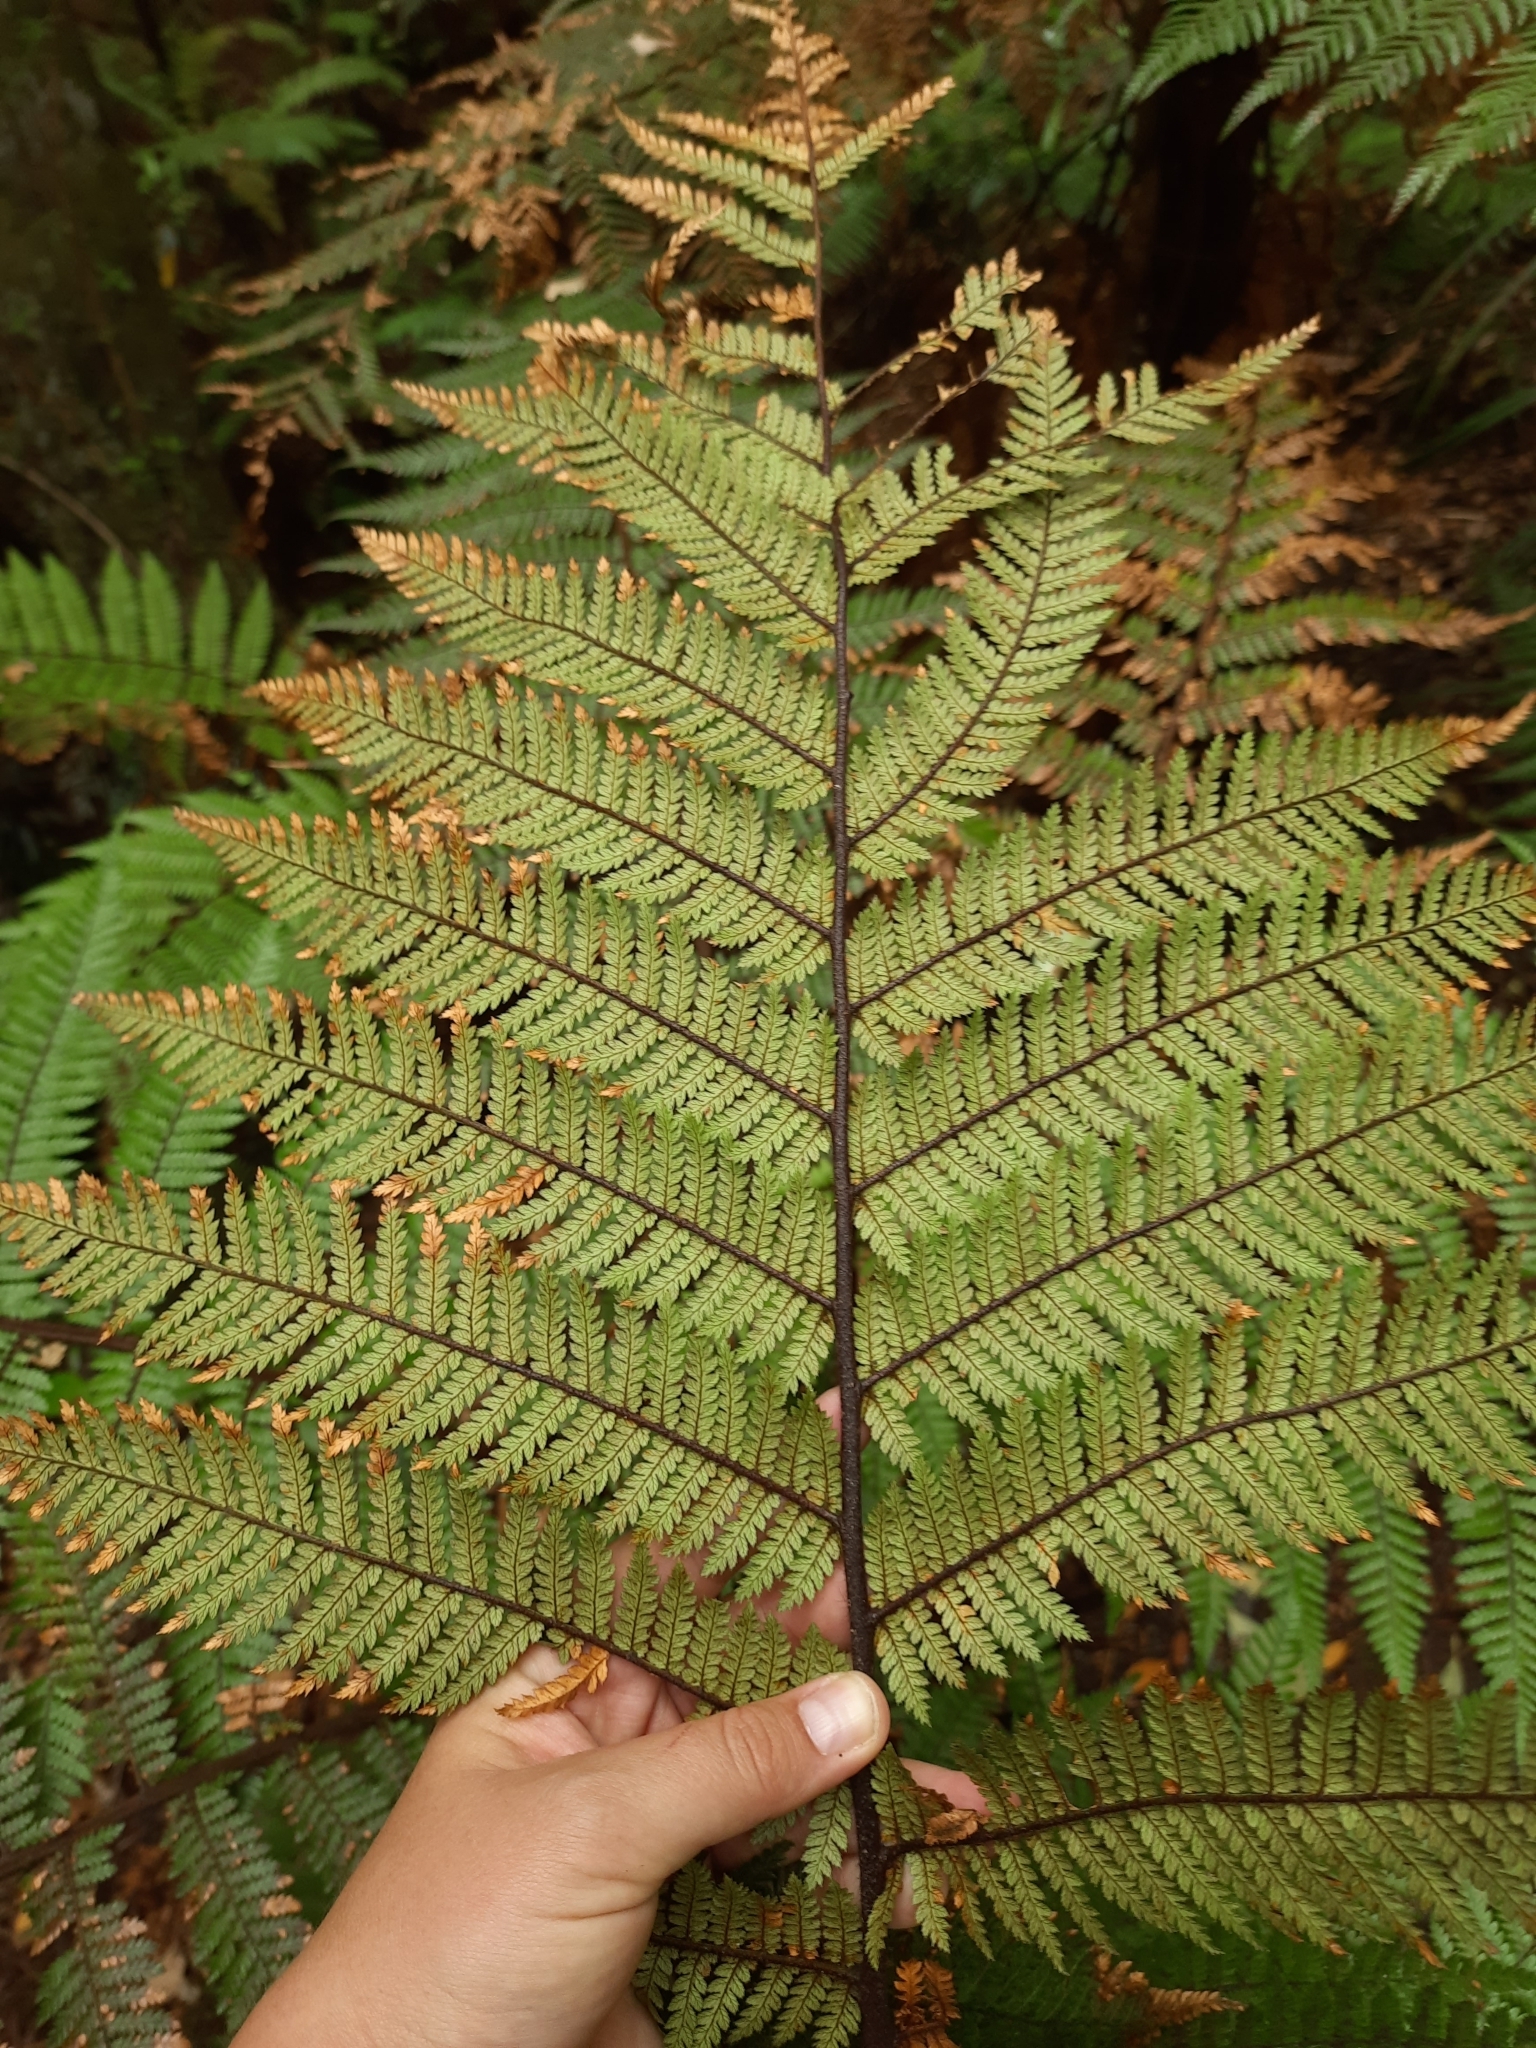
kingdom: Plantae
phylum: Tracheophyta
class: Polypodiopsida
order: Cyatheales
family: Dicksoniaceae
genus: Dicksonia
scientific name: Dicksonia squarrosa
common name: Hard treefern
